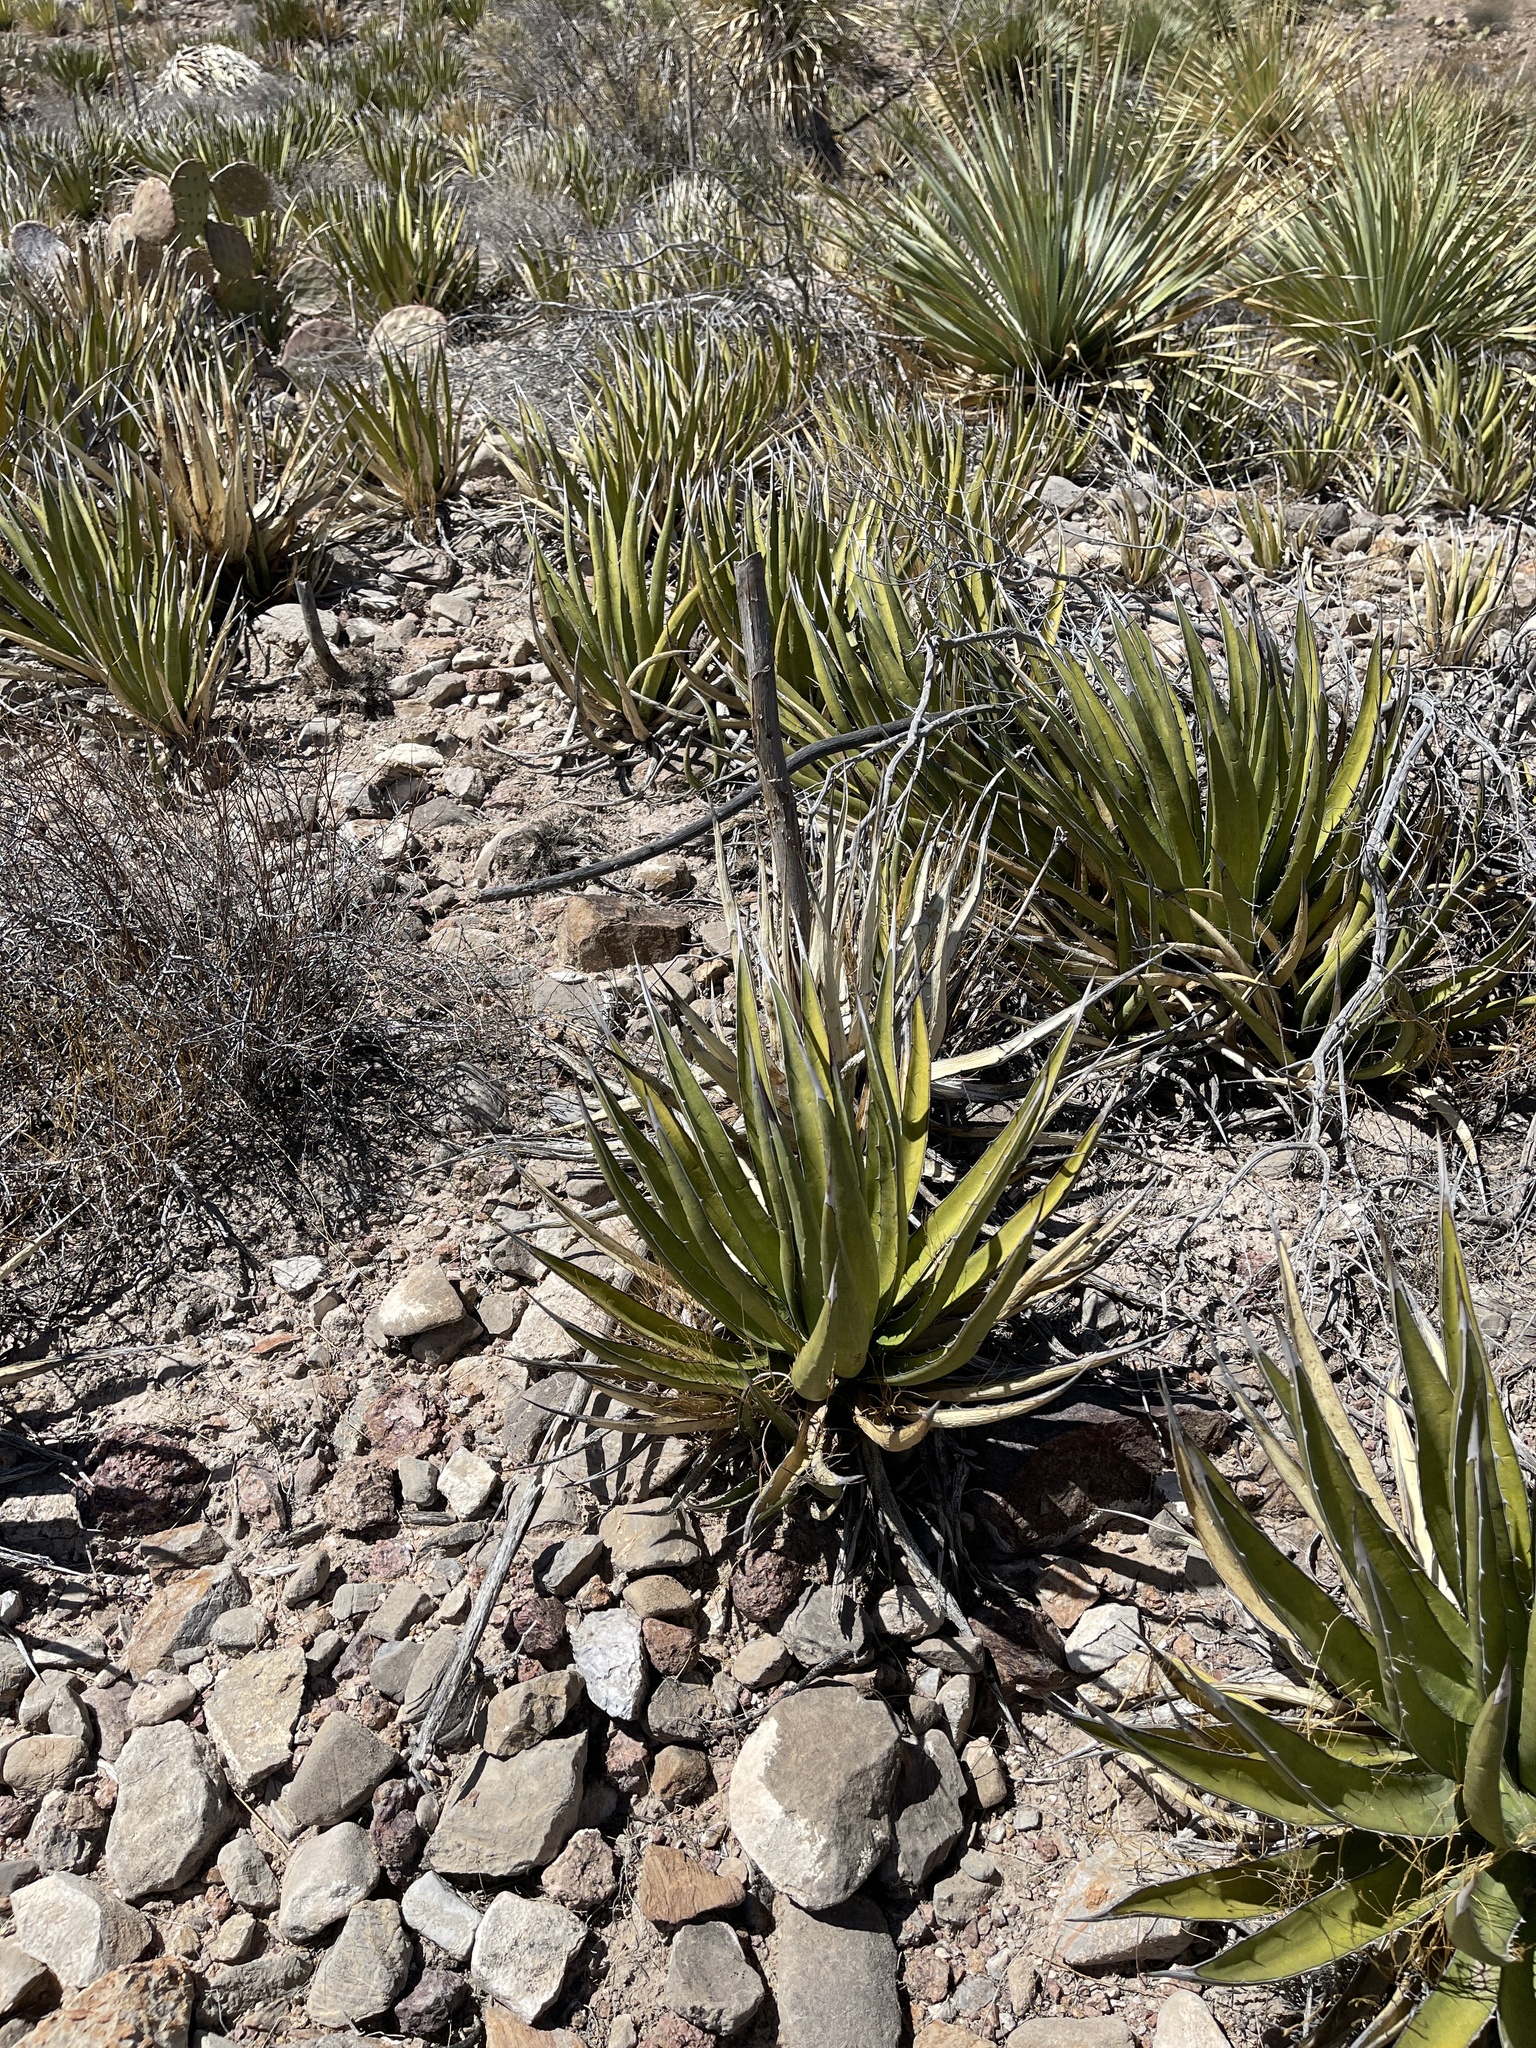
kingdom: Plantae
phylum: Tracheophyta
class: Liliopsida
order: Asparagales
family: Asparagaceae
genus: Agave
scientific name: Agave lechuguilla
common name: Lecheguilla agave
